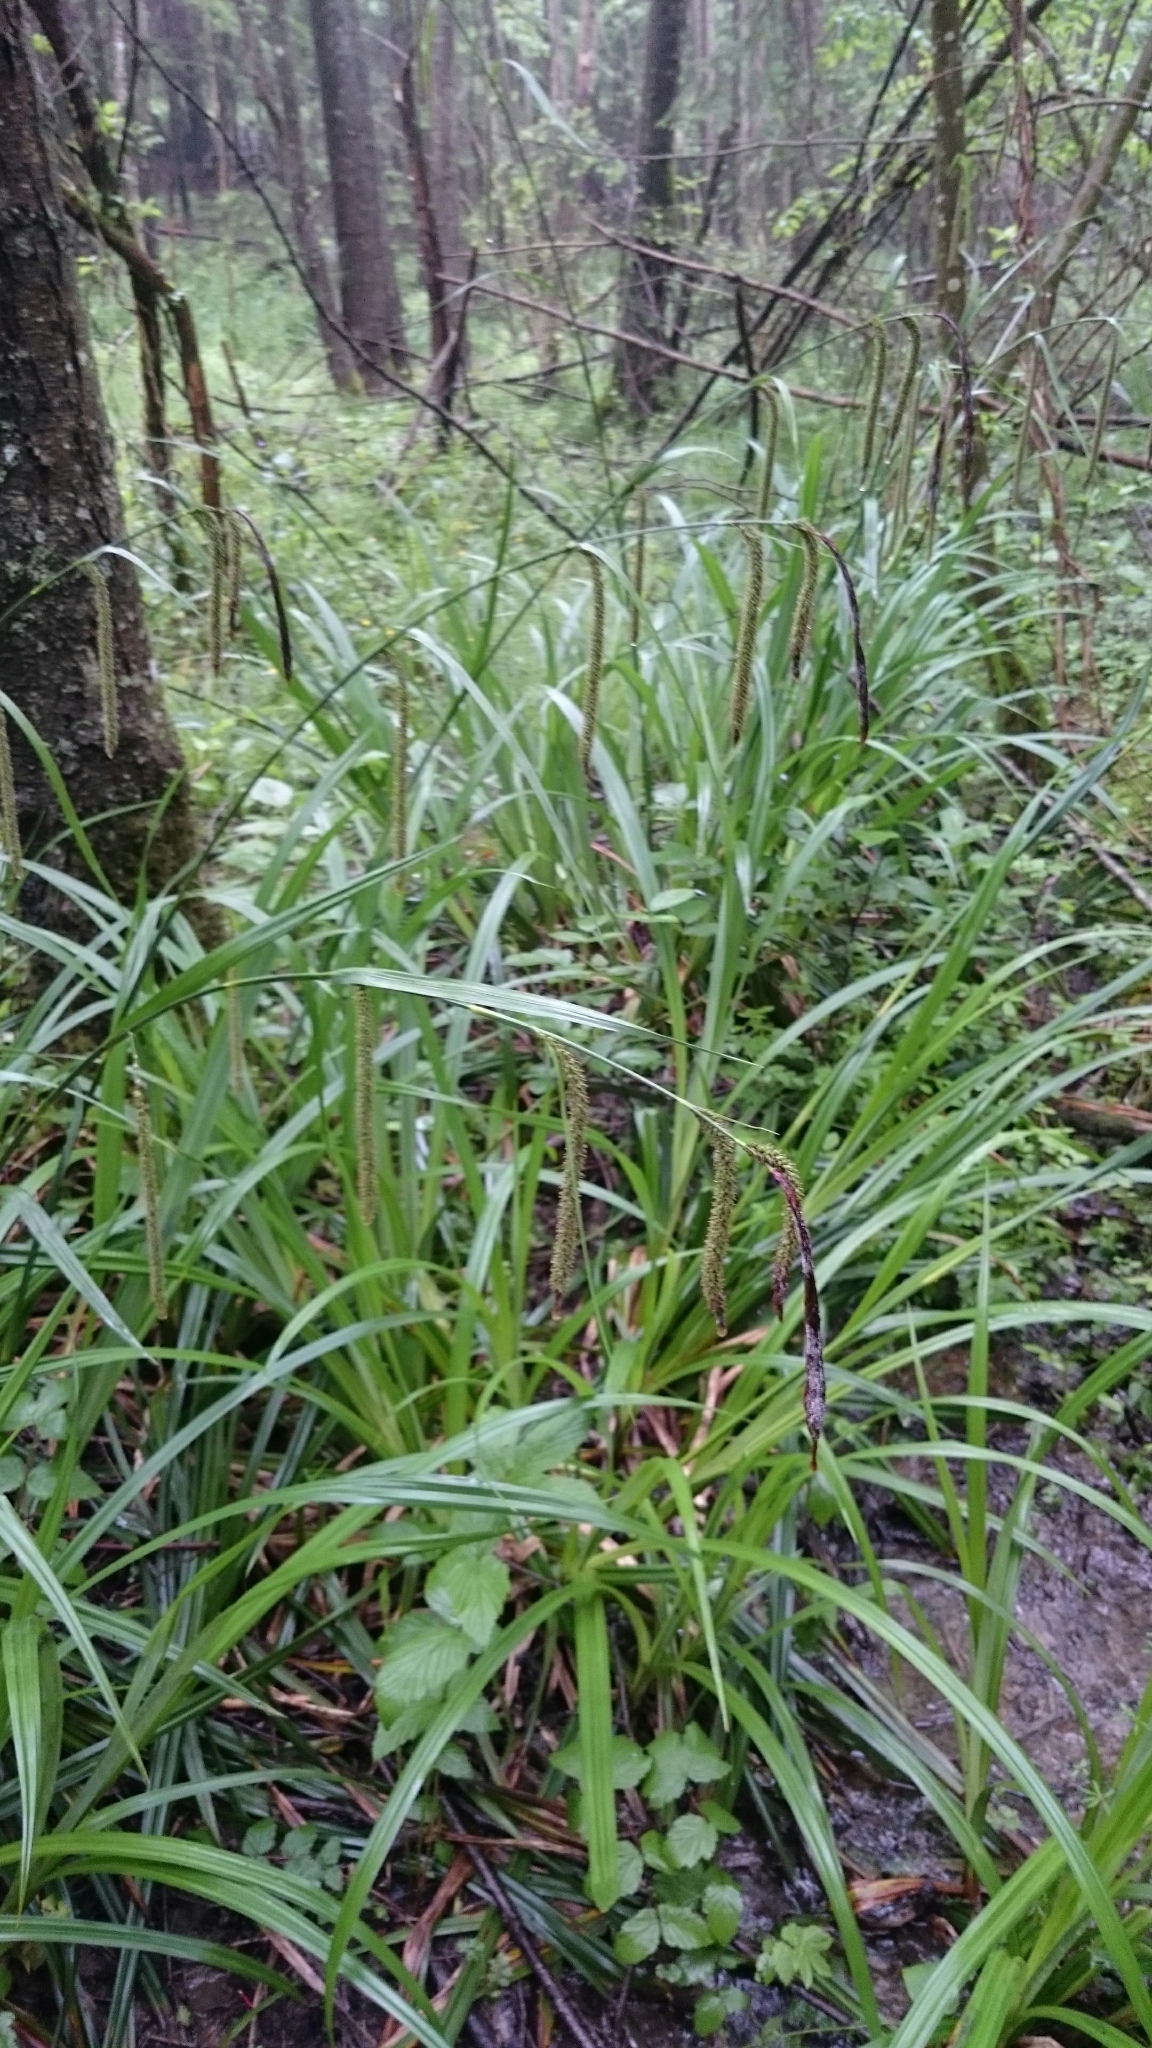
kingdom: Plantae
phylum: Tracheophyta
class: Liliopsida
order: Poales
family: Cyperaceae
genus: Carex
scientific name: Carex pendula
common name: Pendulous sedge
